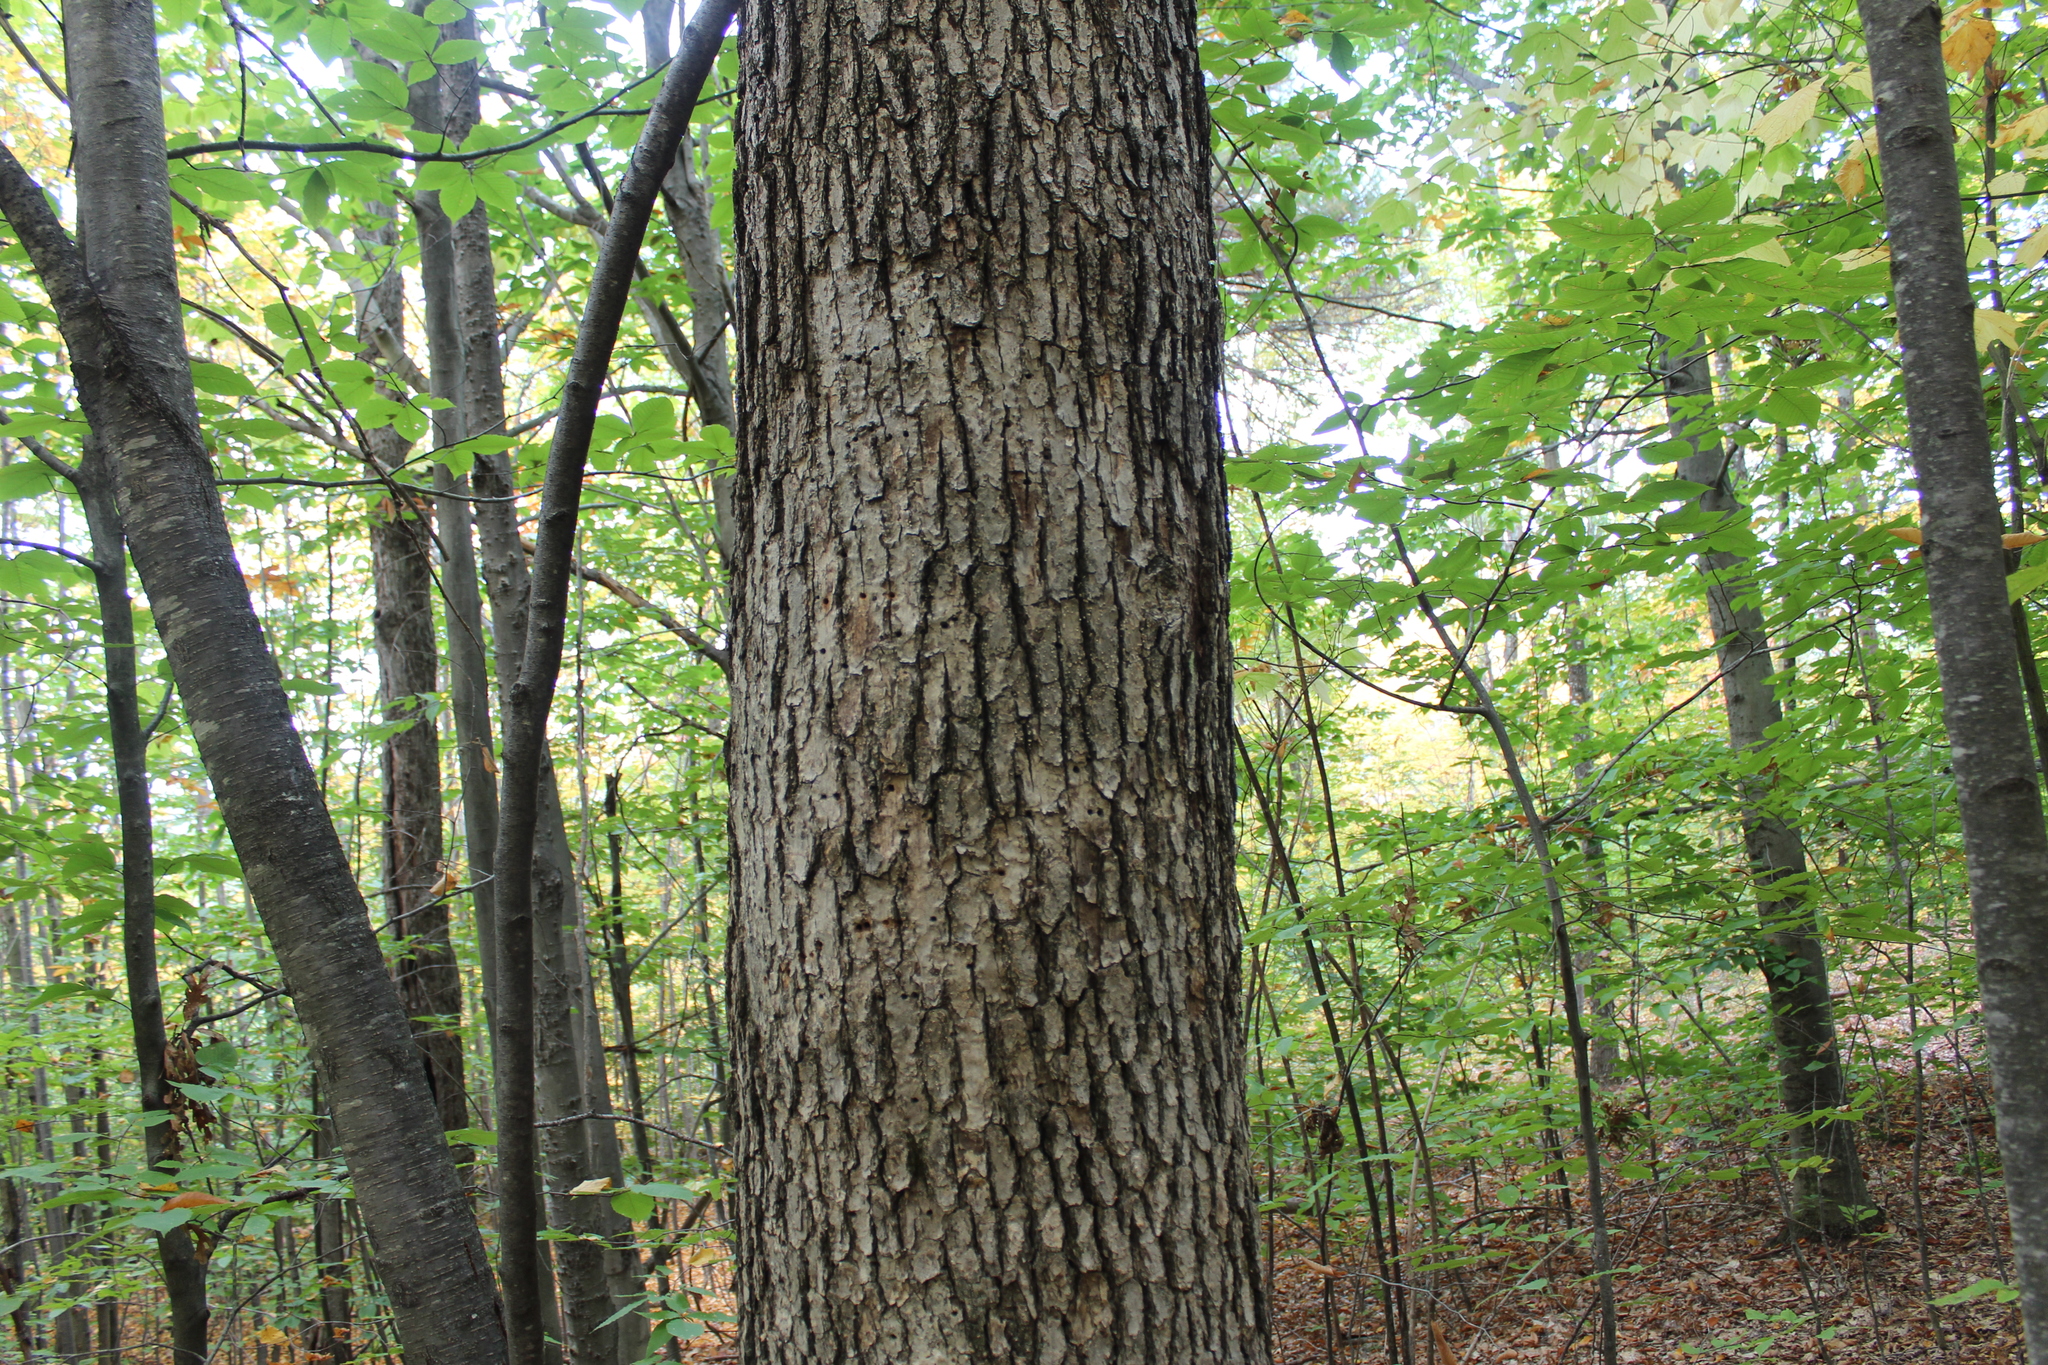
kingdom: Plantae
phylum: Tracheophyta
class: Magnoliopsida
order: Fagales
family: Fagaceae
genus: Quercus
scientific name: Quercus alba
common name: White oak
